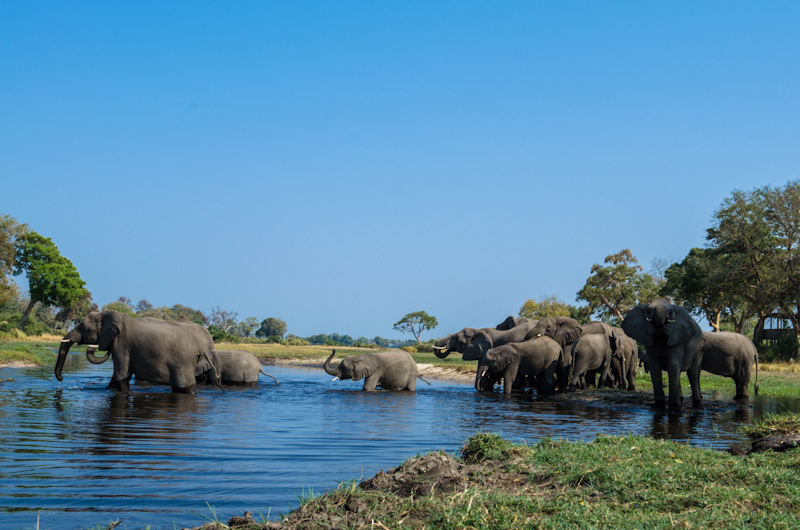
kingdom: Animalia
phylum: Chordata
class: Mammalia
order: Proboscidea
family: Elephantidae
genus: Loxodonta
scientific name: Loxodonta africana
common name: African elephant
